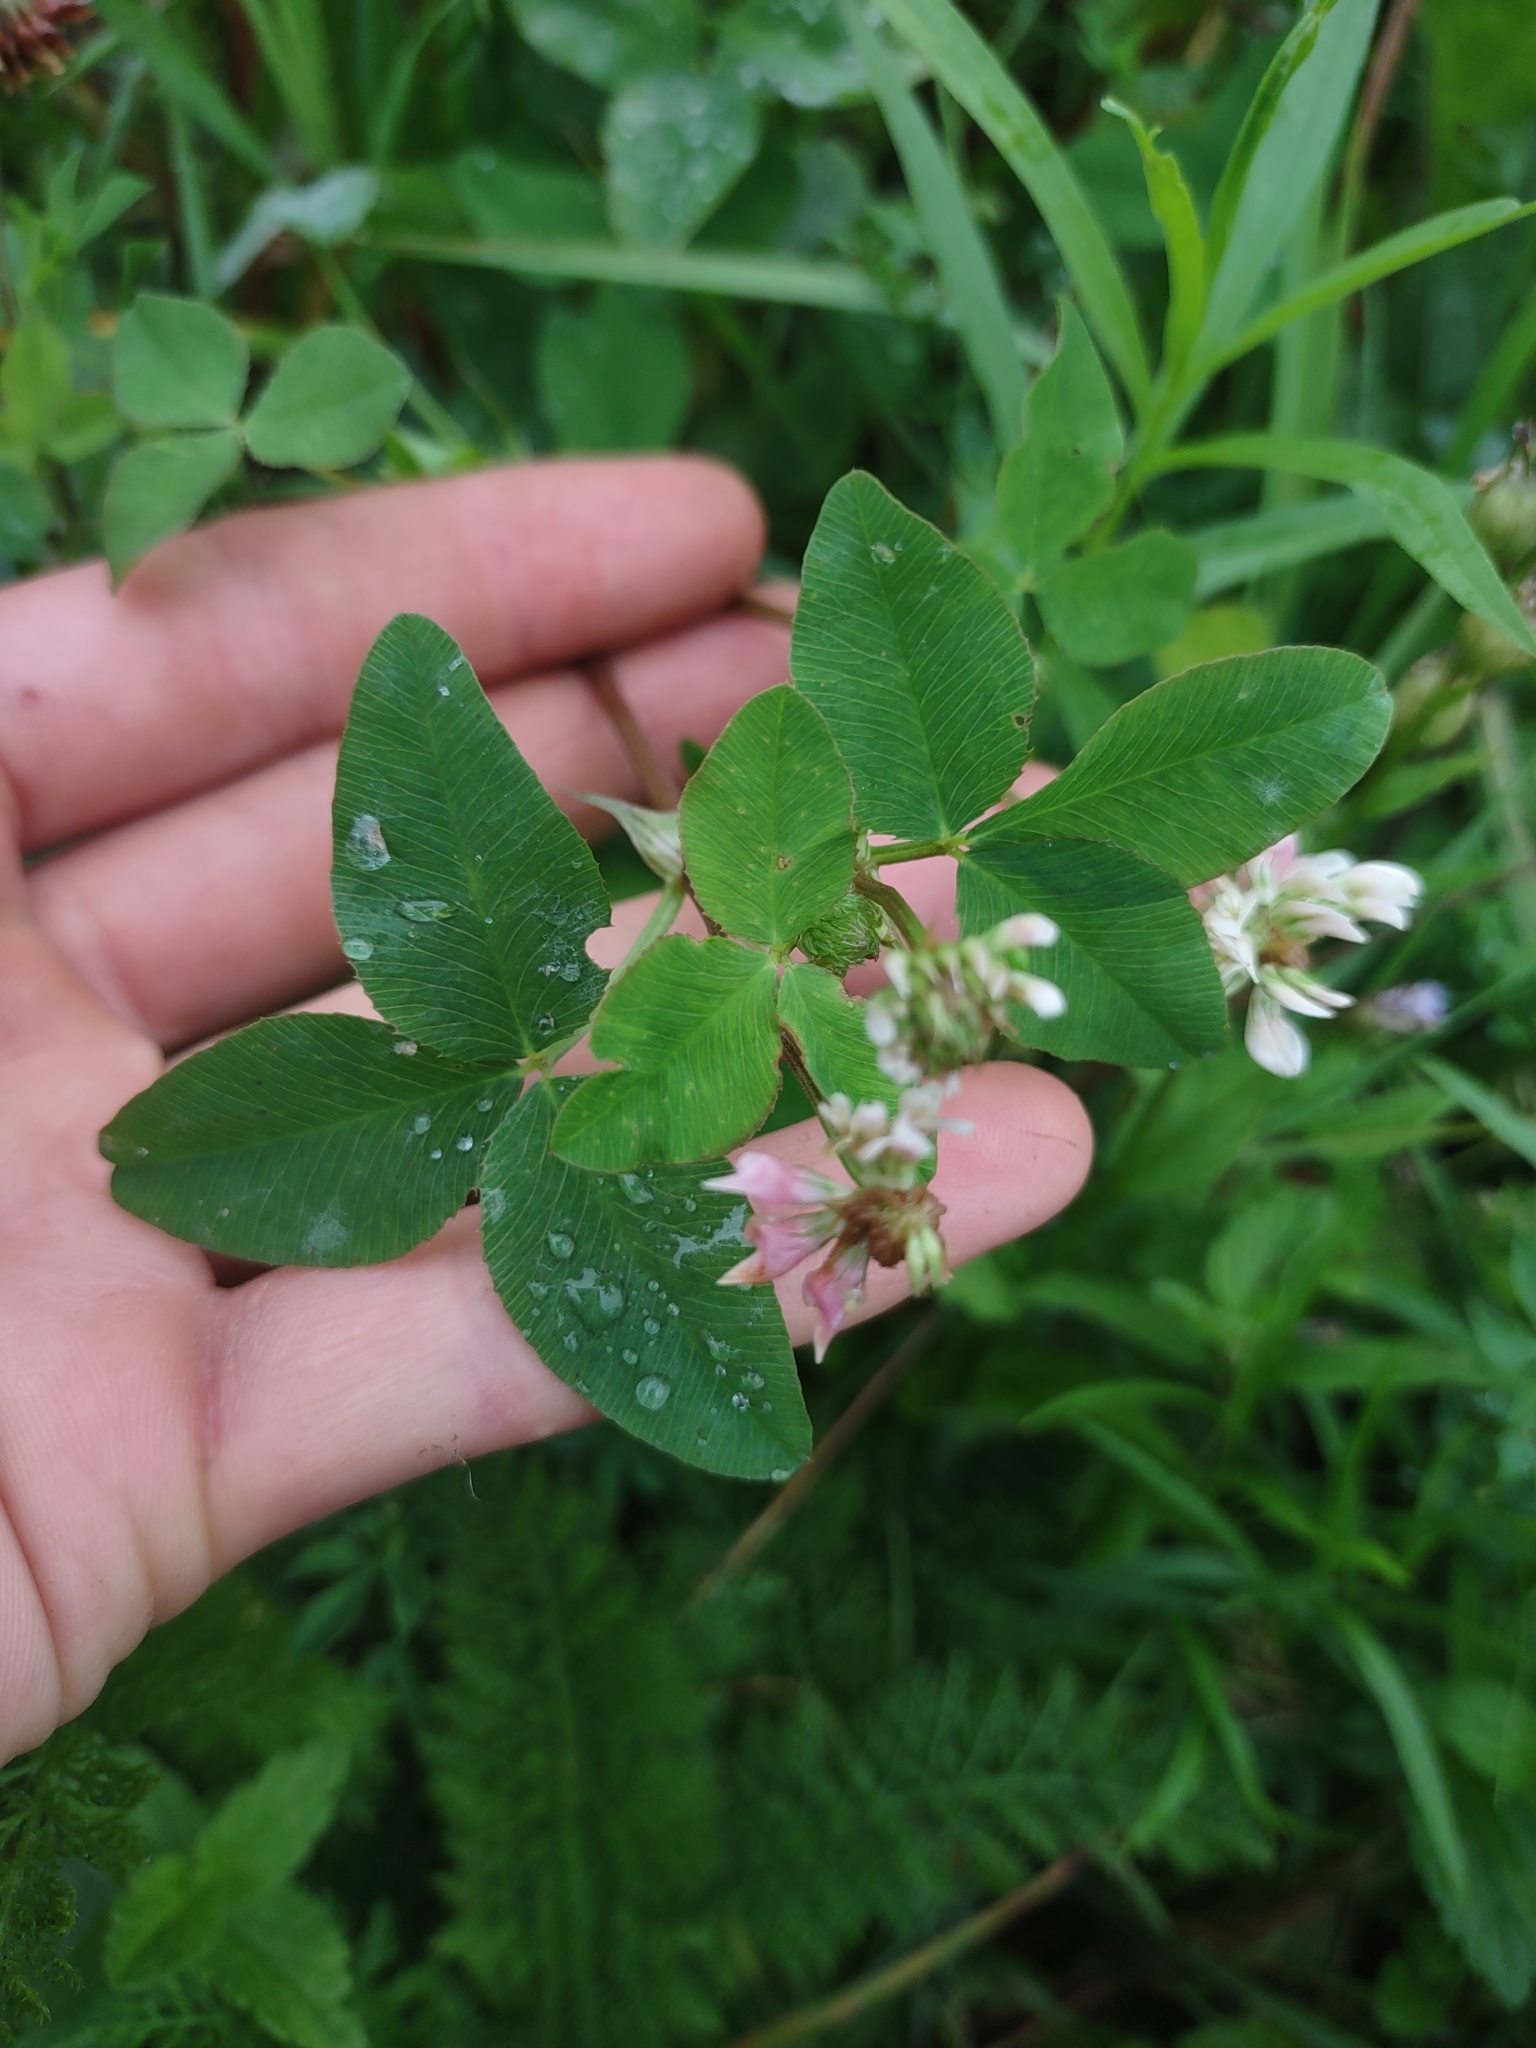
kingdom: Plantae
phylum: Tracheophyta
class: Magnoliopsida
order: Fabales
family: Fabaceae
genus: Trifolium
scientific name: Trifolium hybridum
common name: Alsike clover
